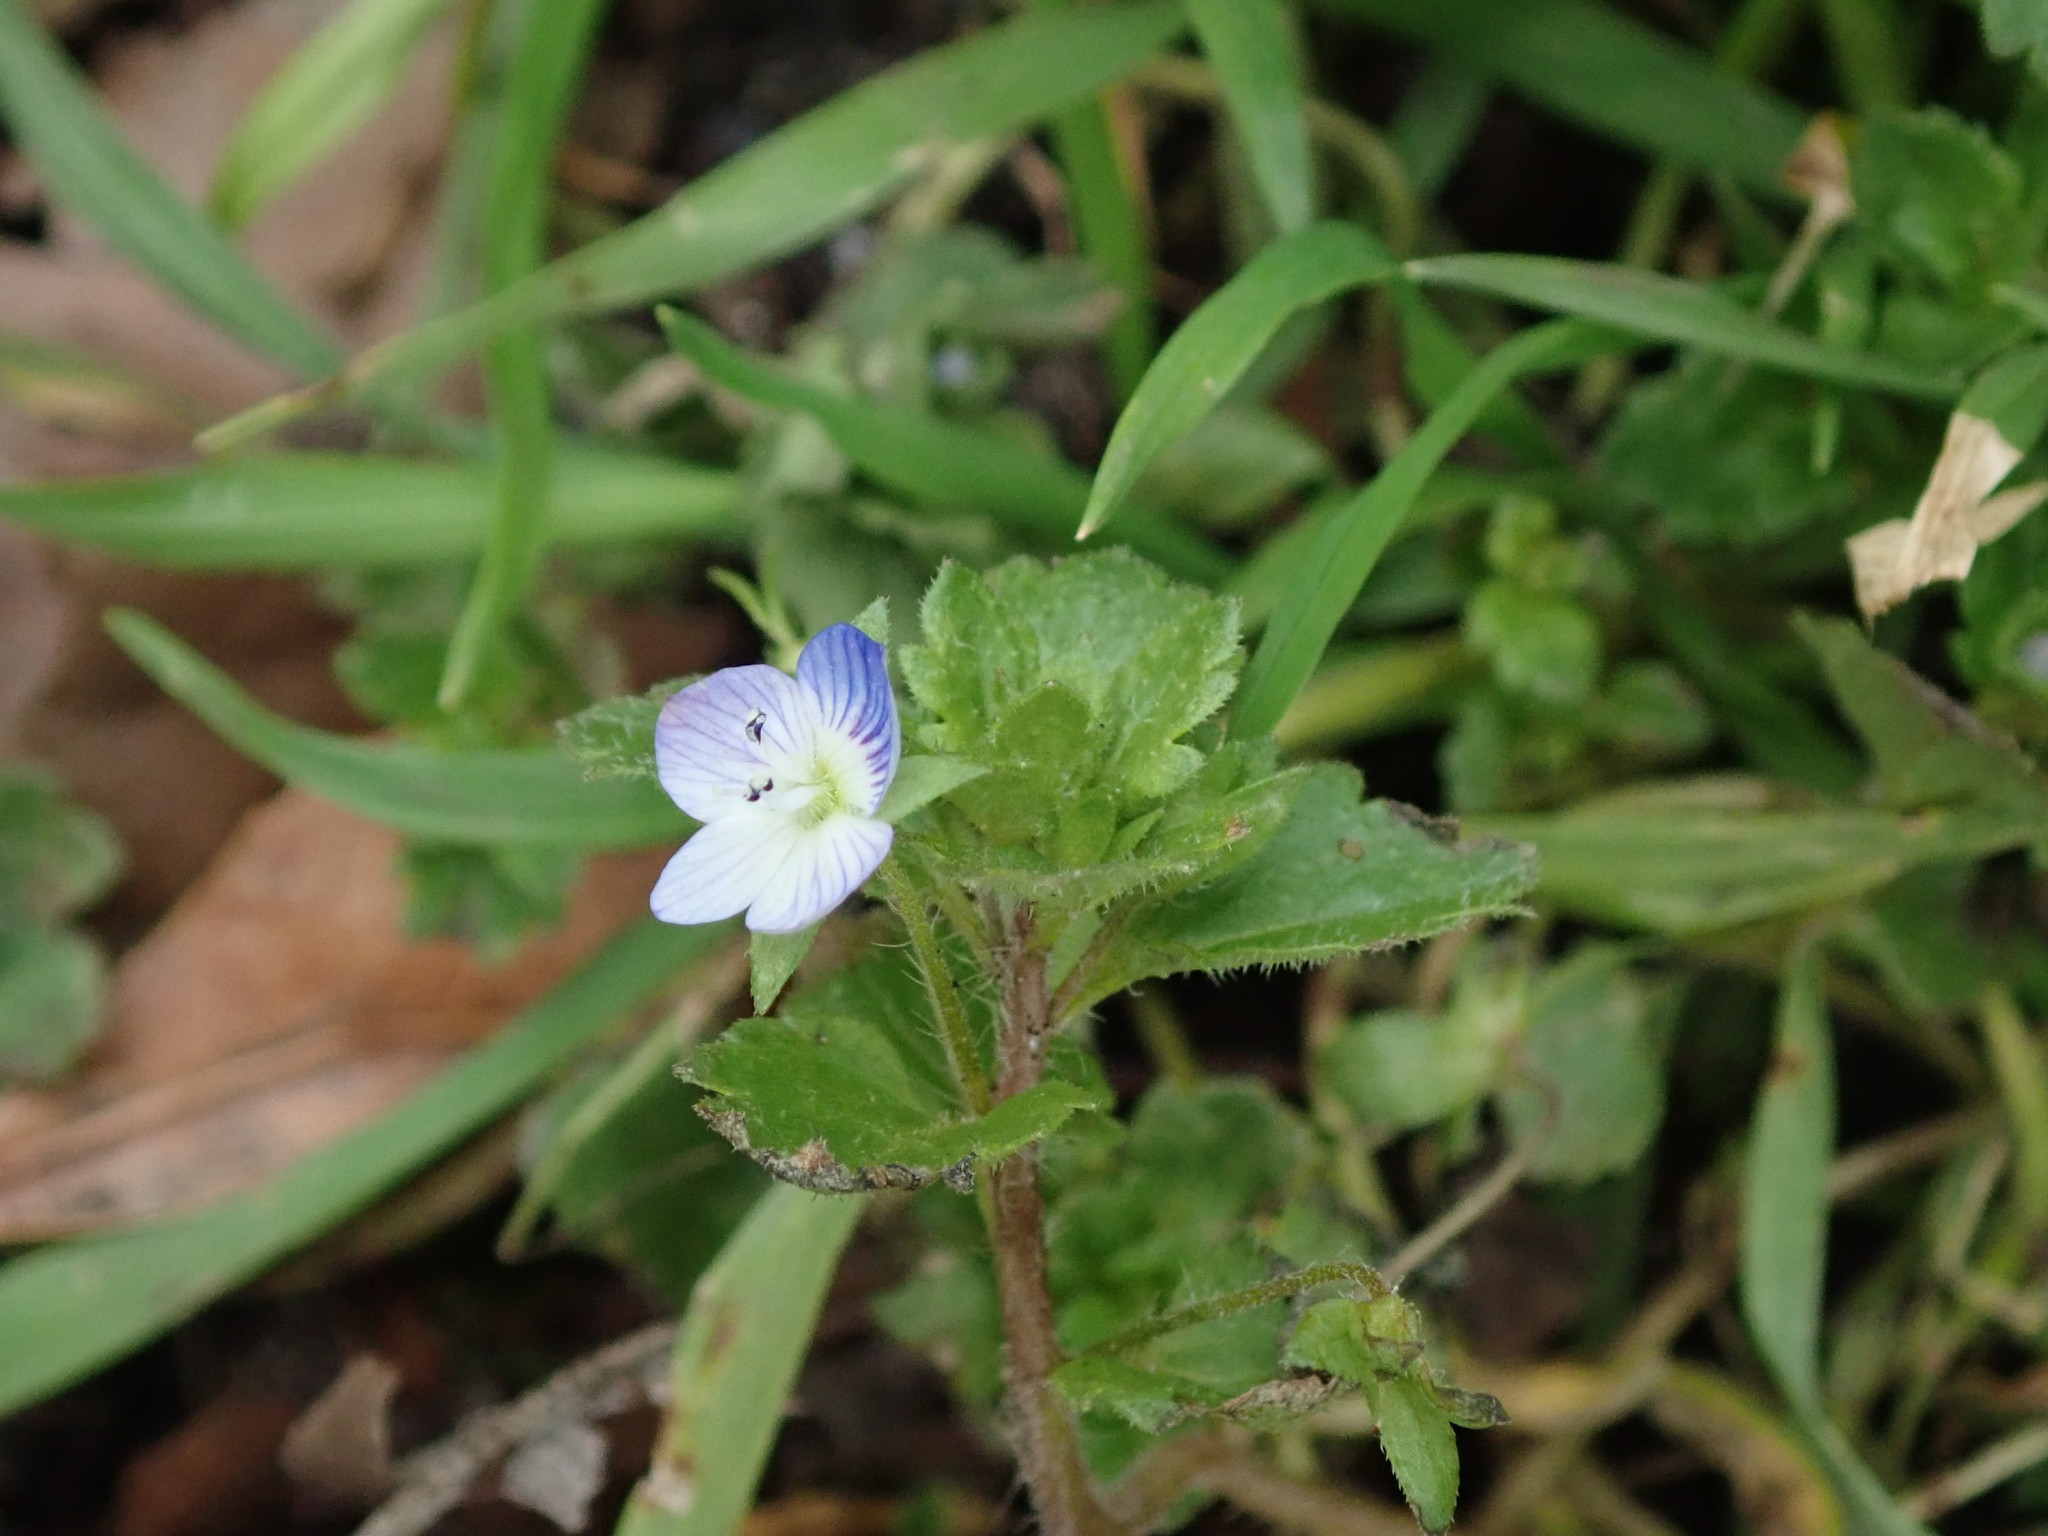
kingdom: Plantae
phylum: Tracheophyta
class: Magnoliopsida
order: Lamiales
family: Plantaginaceae
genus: Veronica
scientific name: Veronica persica
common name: Common field-speedwell
